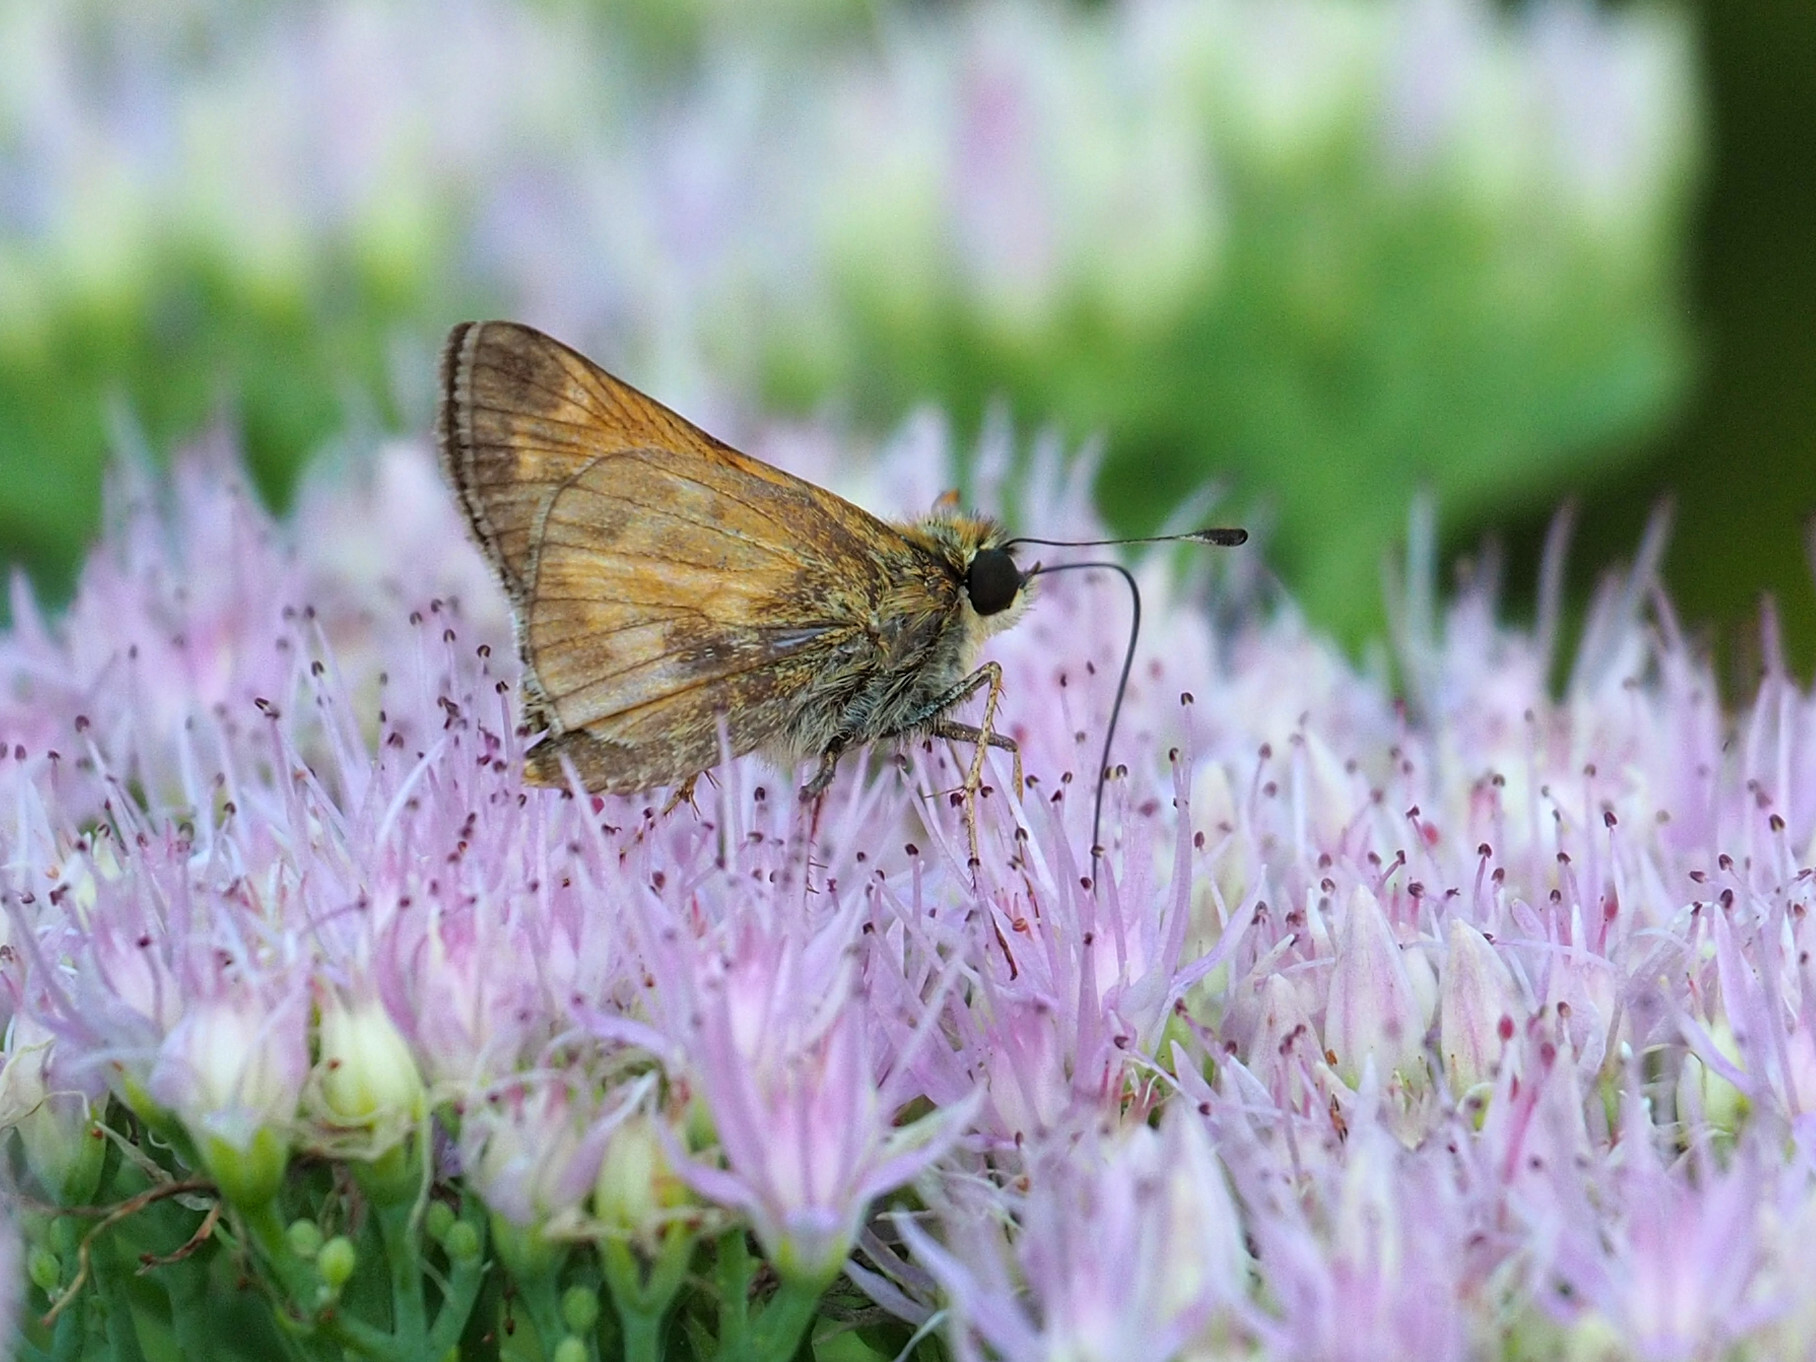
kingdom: Animalia
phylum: Arthropoda
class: Insecta
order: Lepidoptera
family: Hesperiidae
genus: Atalopedes
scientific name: Atalopedes
